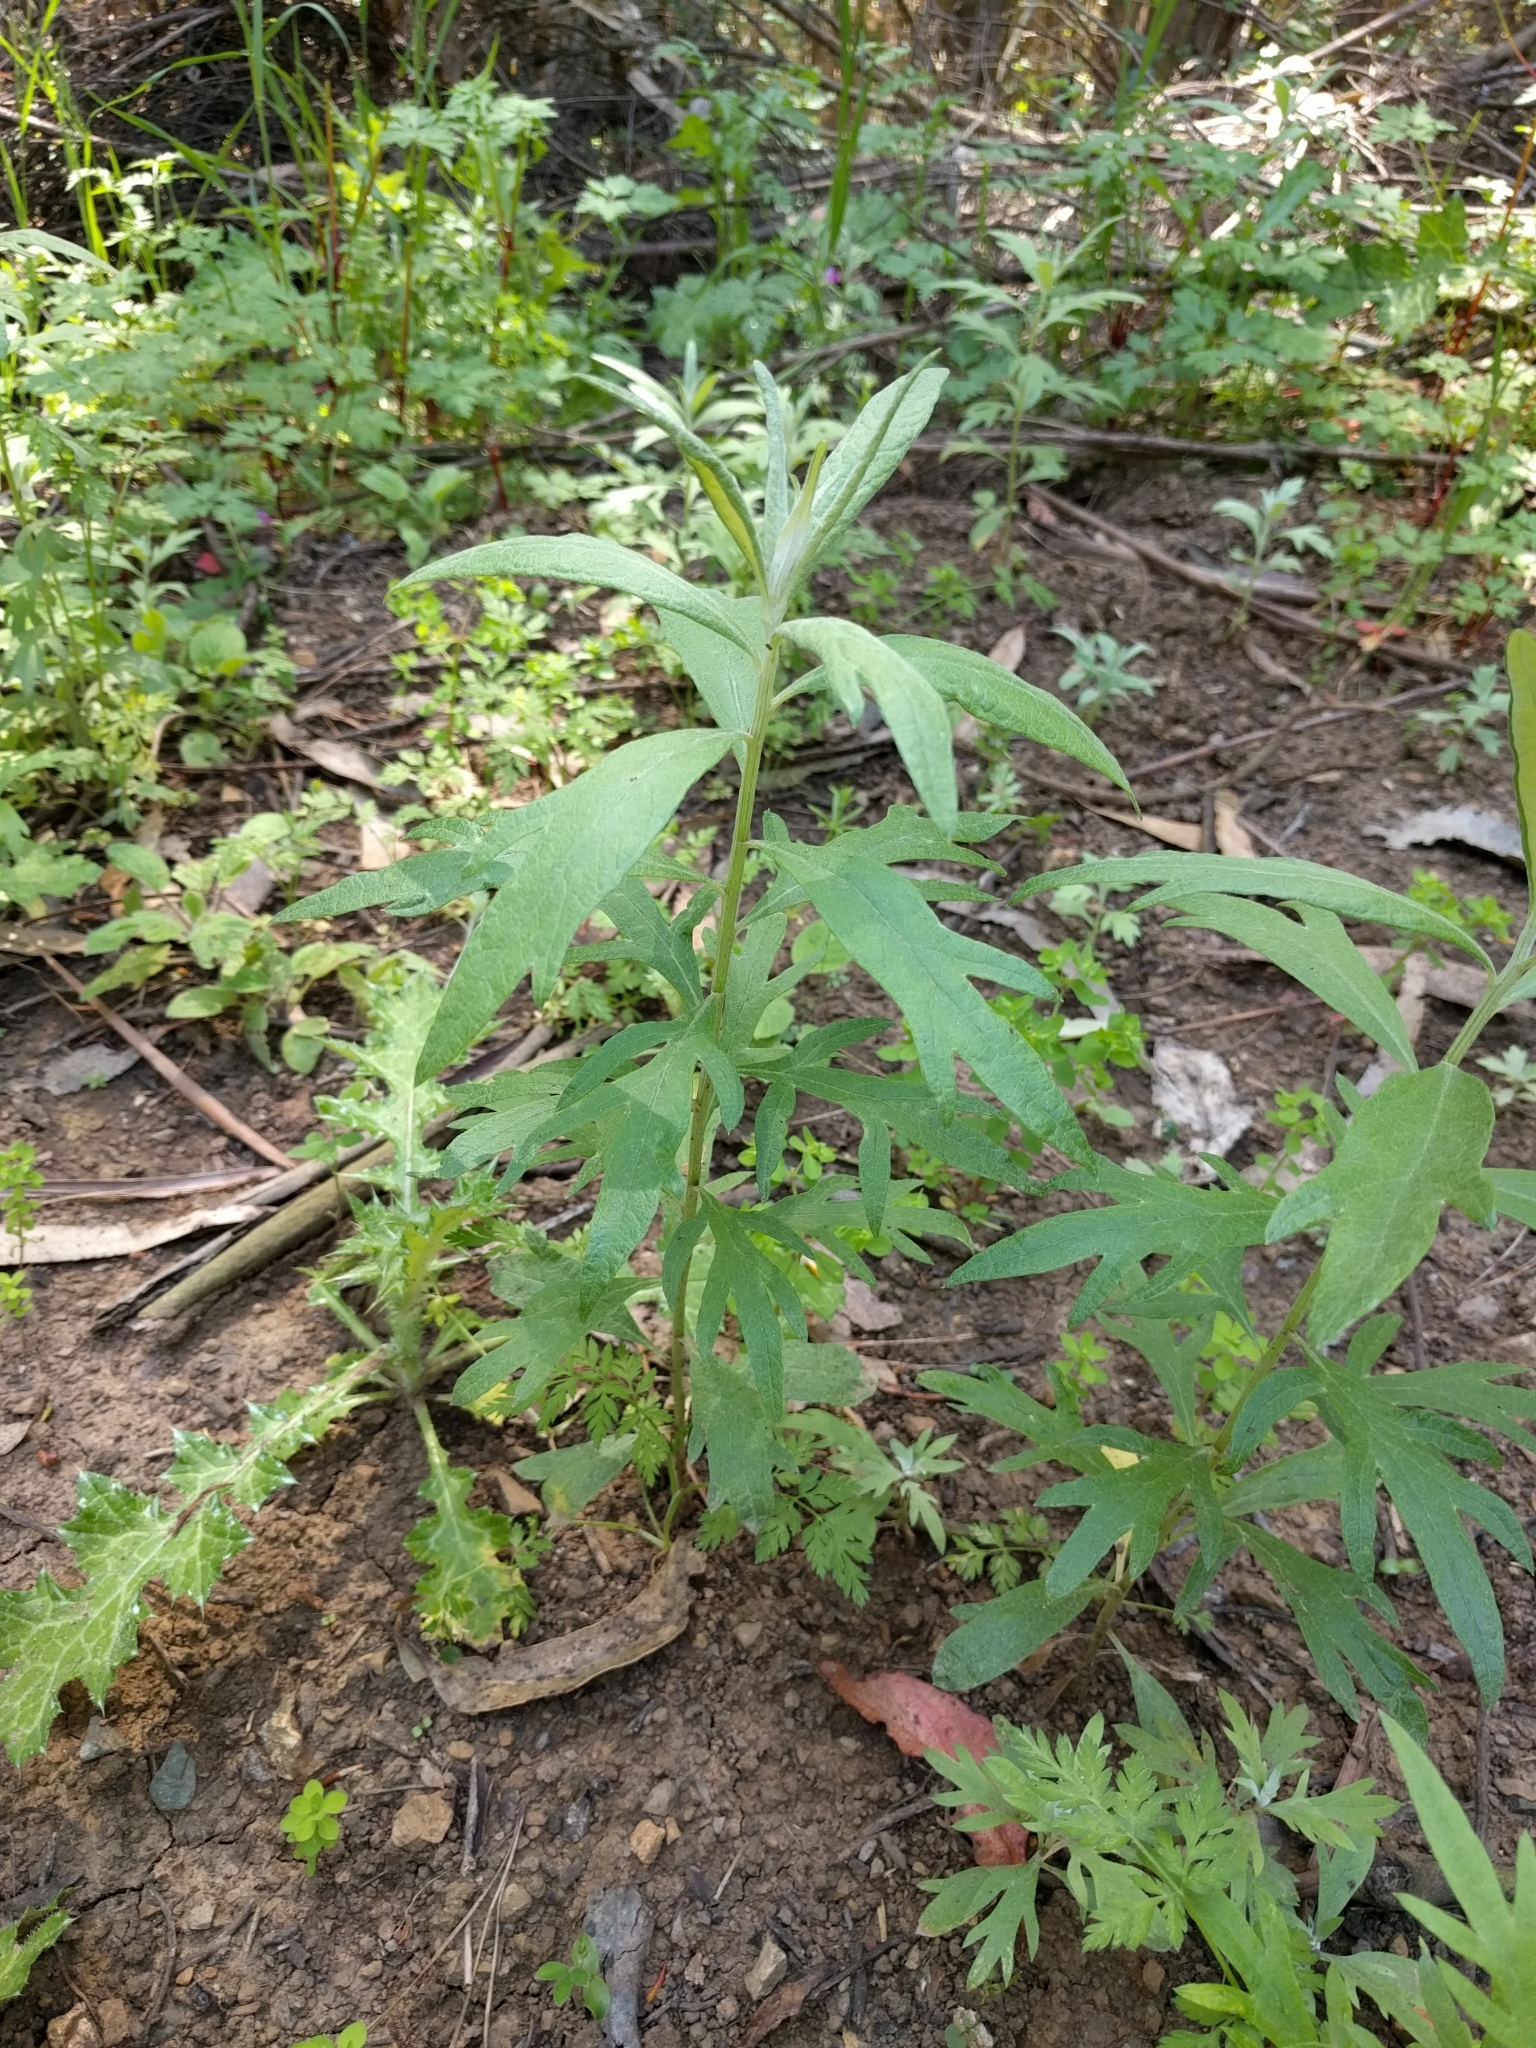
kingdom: Plantae
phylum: Tracheophyta
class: Magnoliopsida
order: Asterales
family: Asteraceae
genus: Artemisia
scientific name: Artemisia douglasiana
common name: Northwest mugwort
